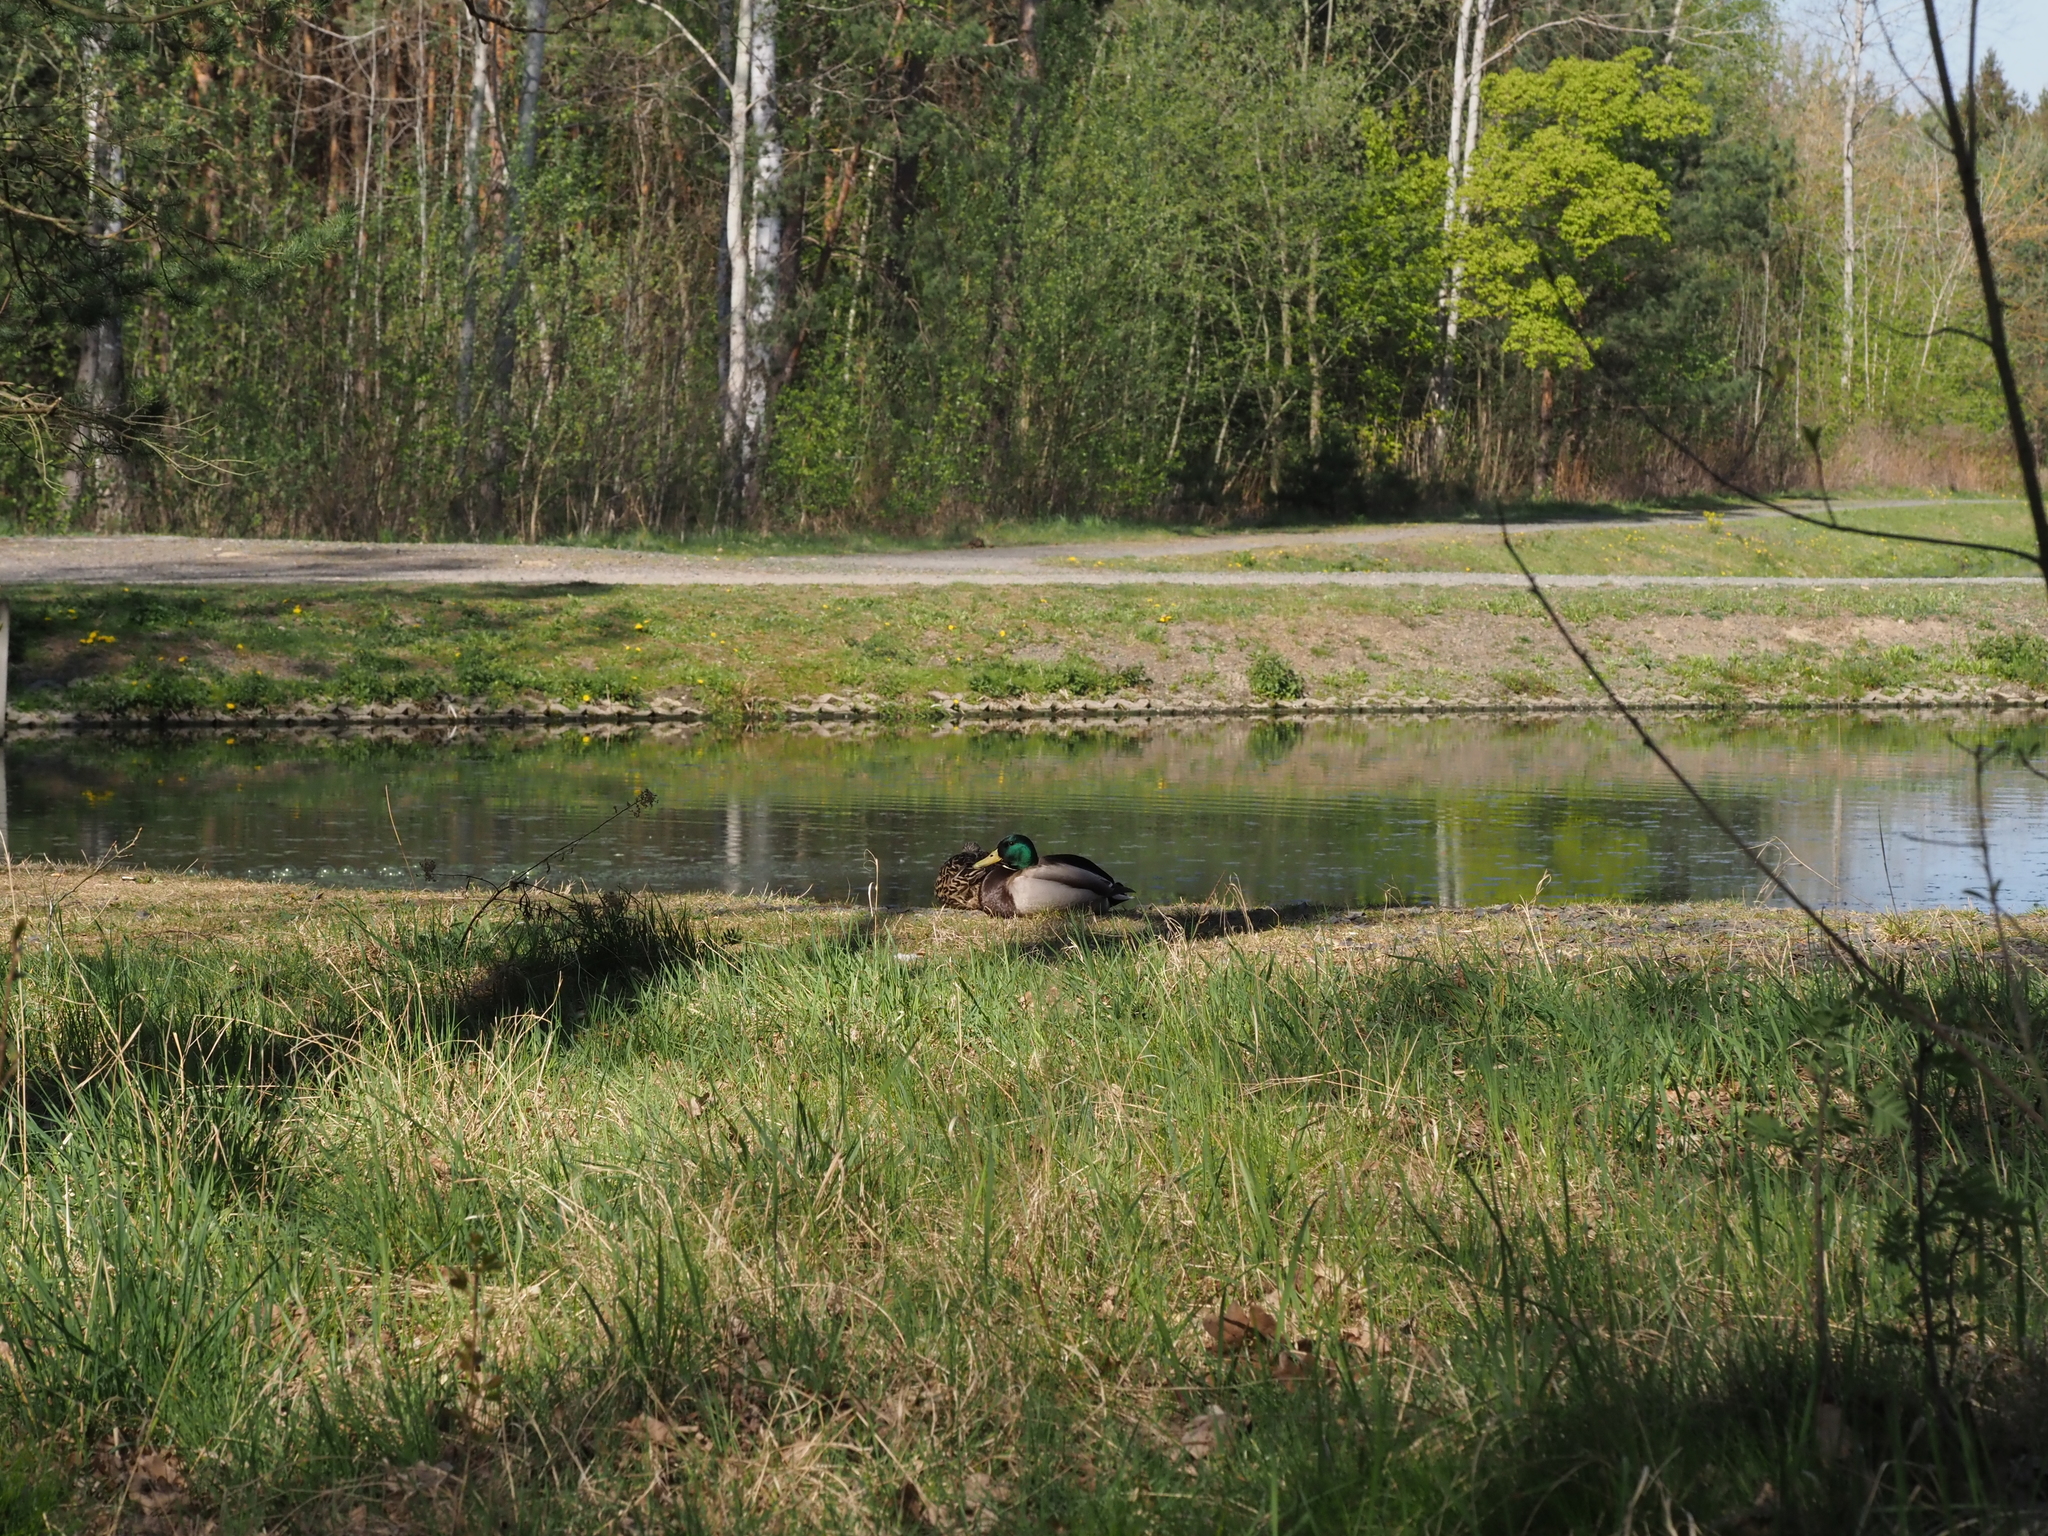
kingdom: Animalia
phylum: Chordata
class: Aves
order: Anseriformes
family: Anatidae
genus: Anas
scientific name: Anas platyrhynchos
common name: Mallard
